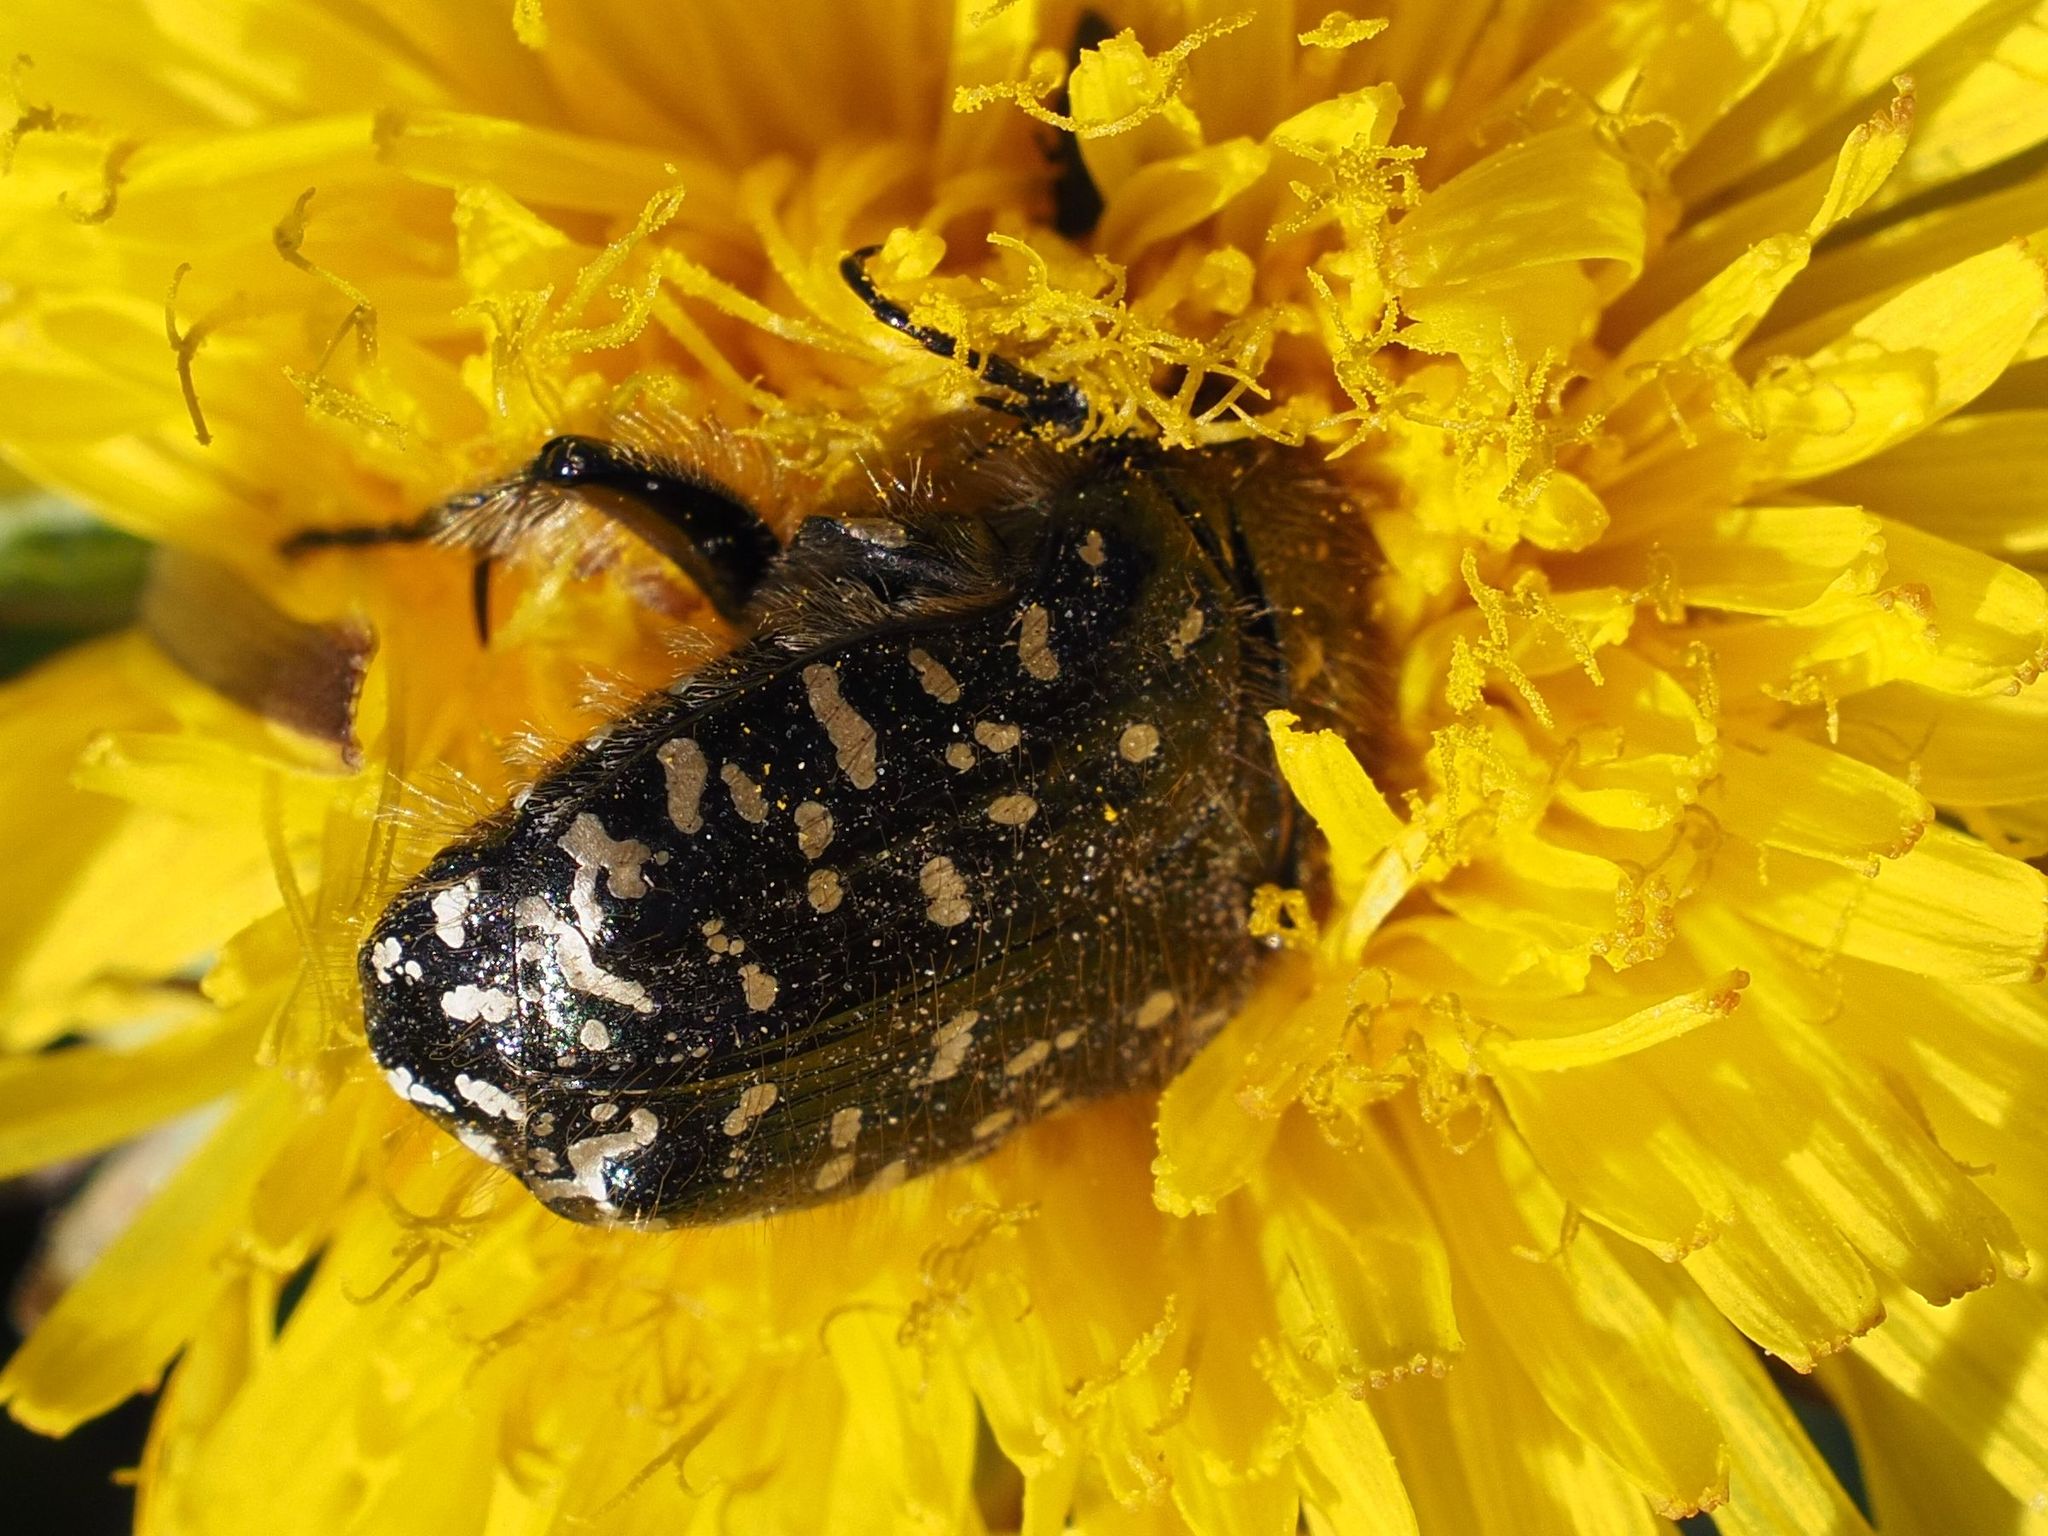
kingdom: Animalia
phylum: Arthropoda
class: Insecta
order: Coleoptera
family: Scarabaeidae
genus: Oxythyrea
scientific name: Oxythyrea funesta
